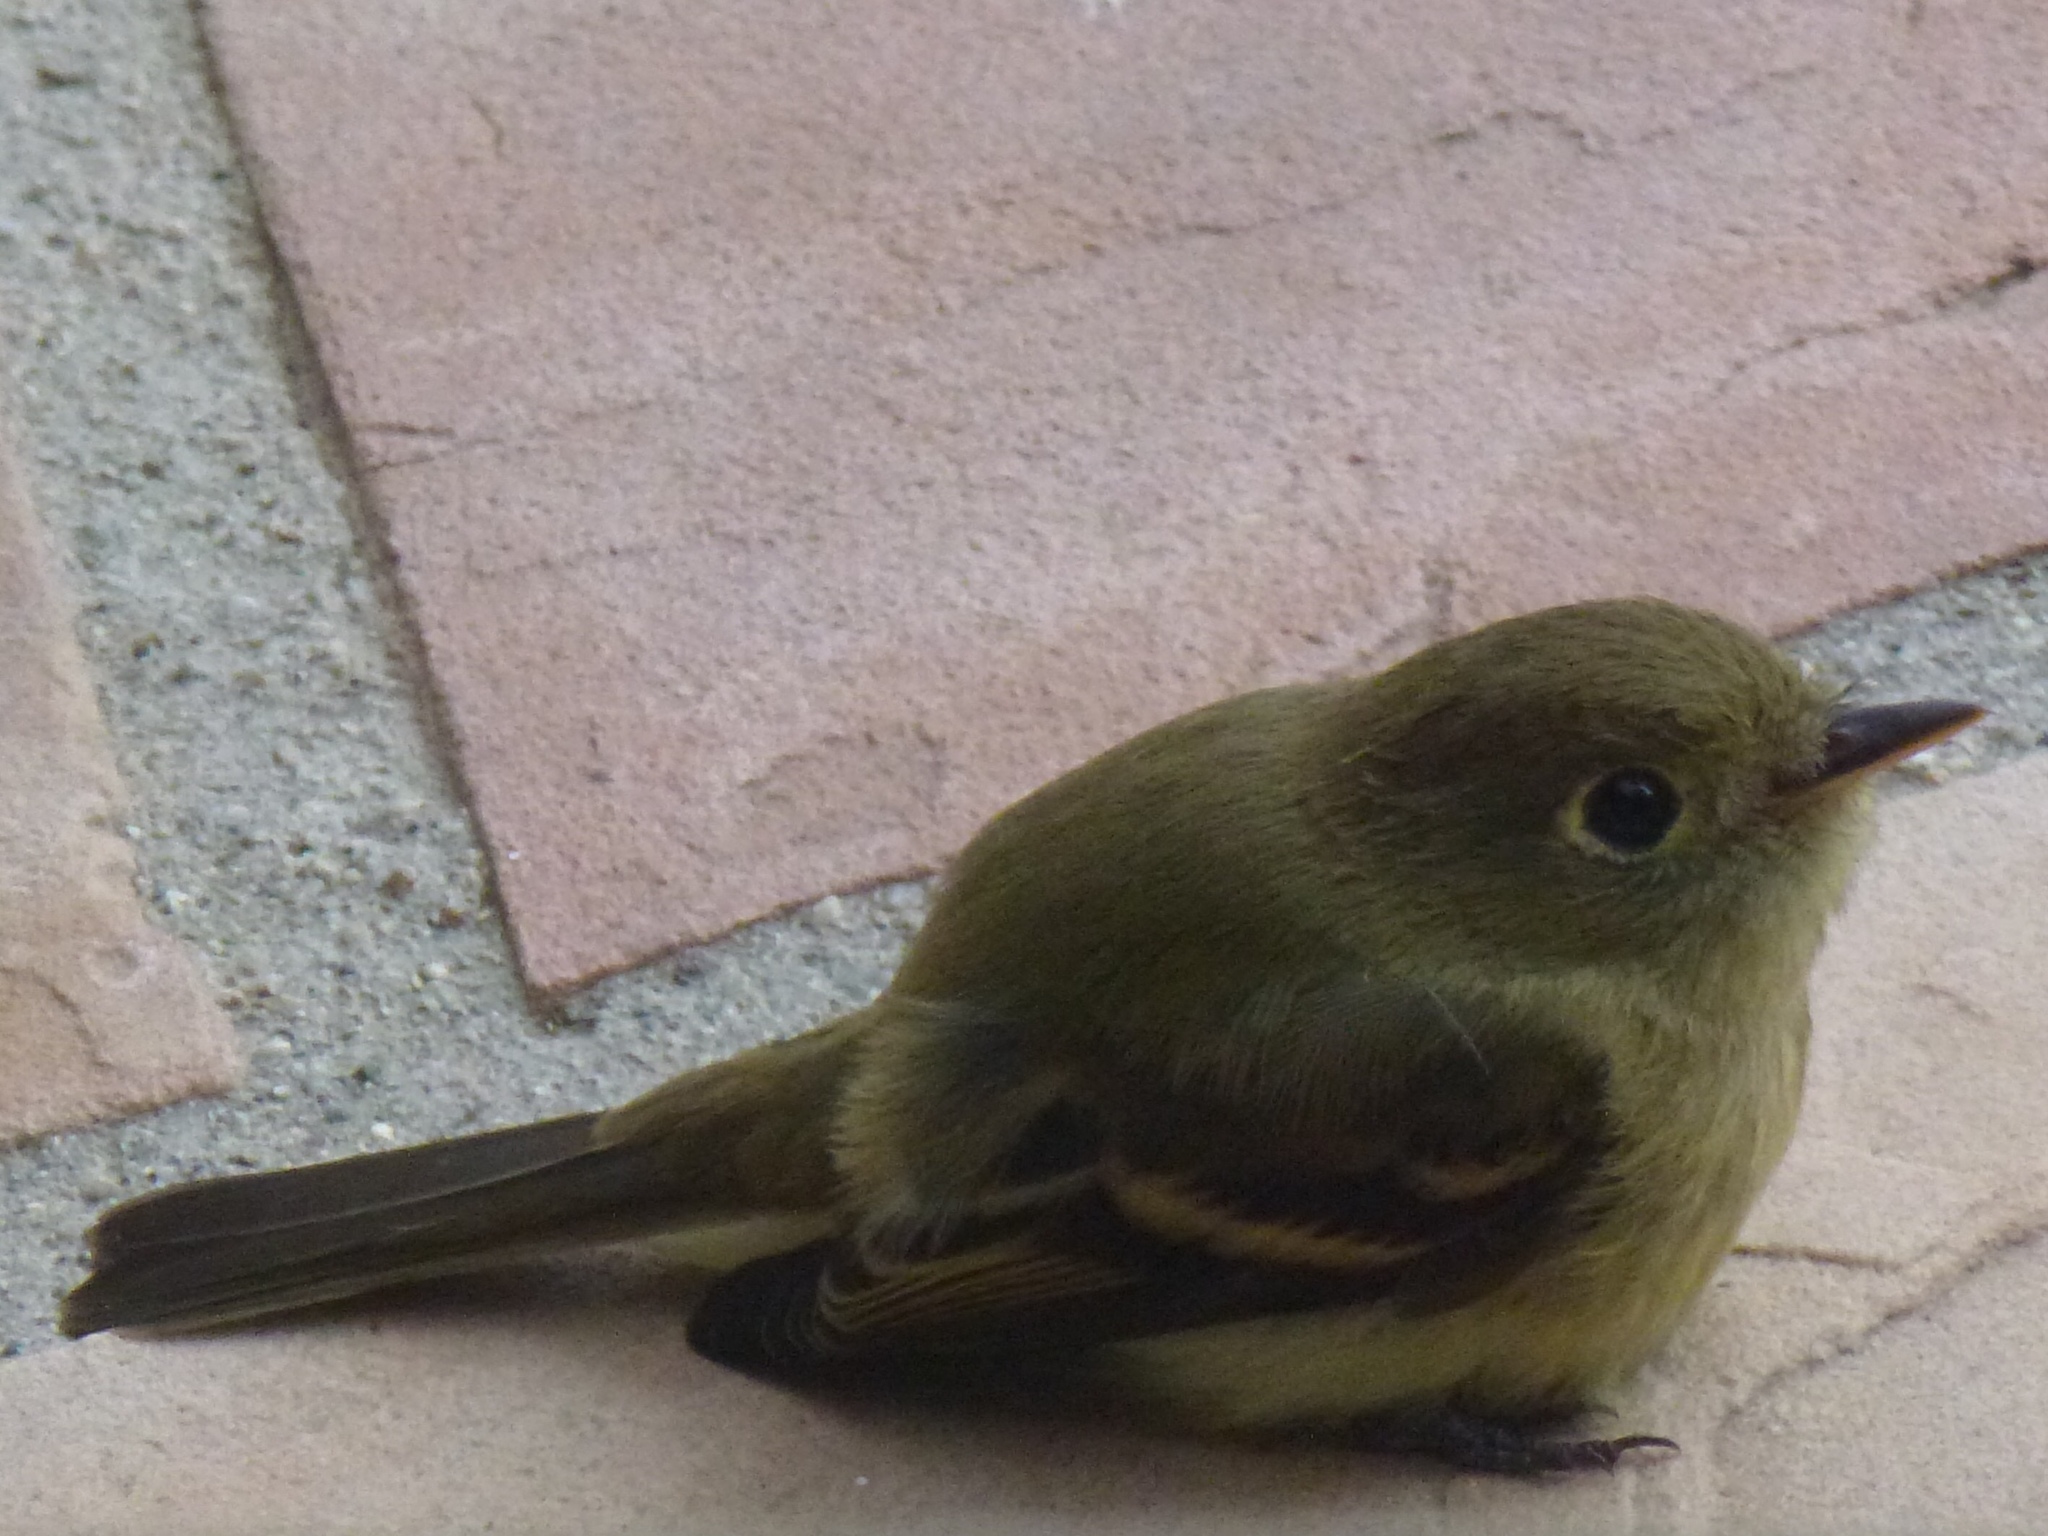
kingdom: Animalia
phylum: Chordata
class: Aves
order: Passeriformes
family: Tyrannidae
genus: Empidonax
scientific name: Empidonax difficilis
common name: Pacific-slope flycatcher
